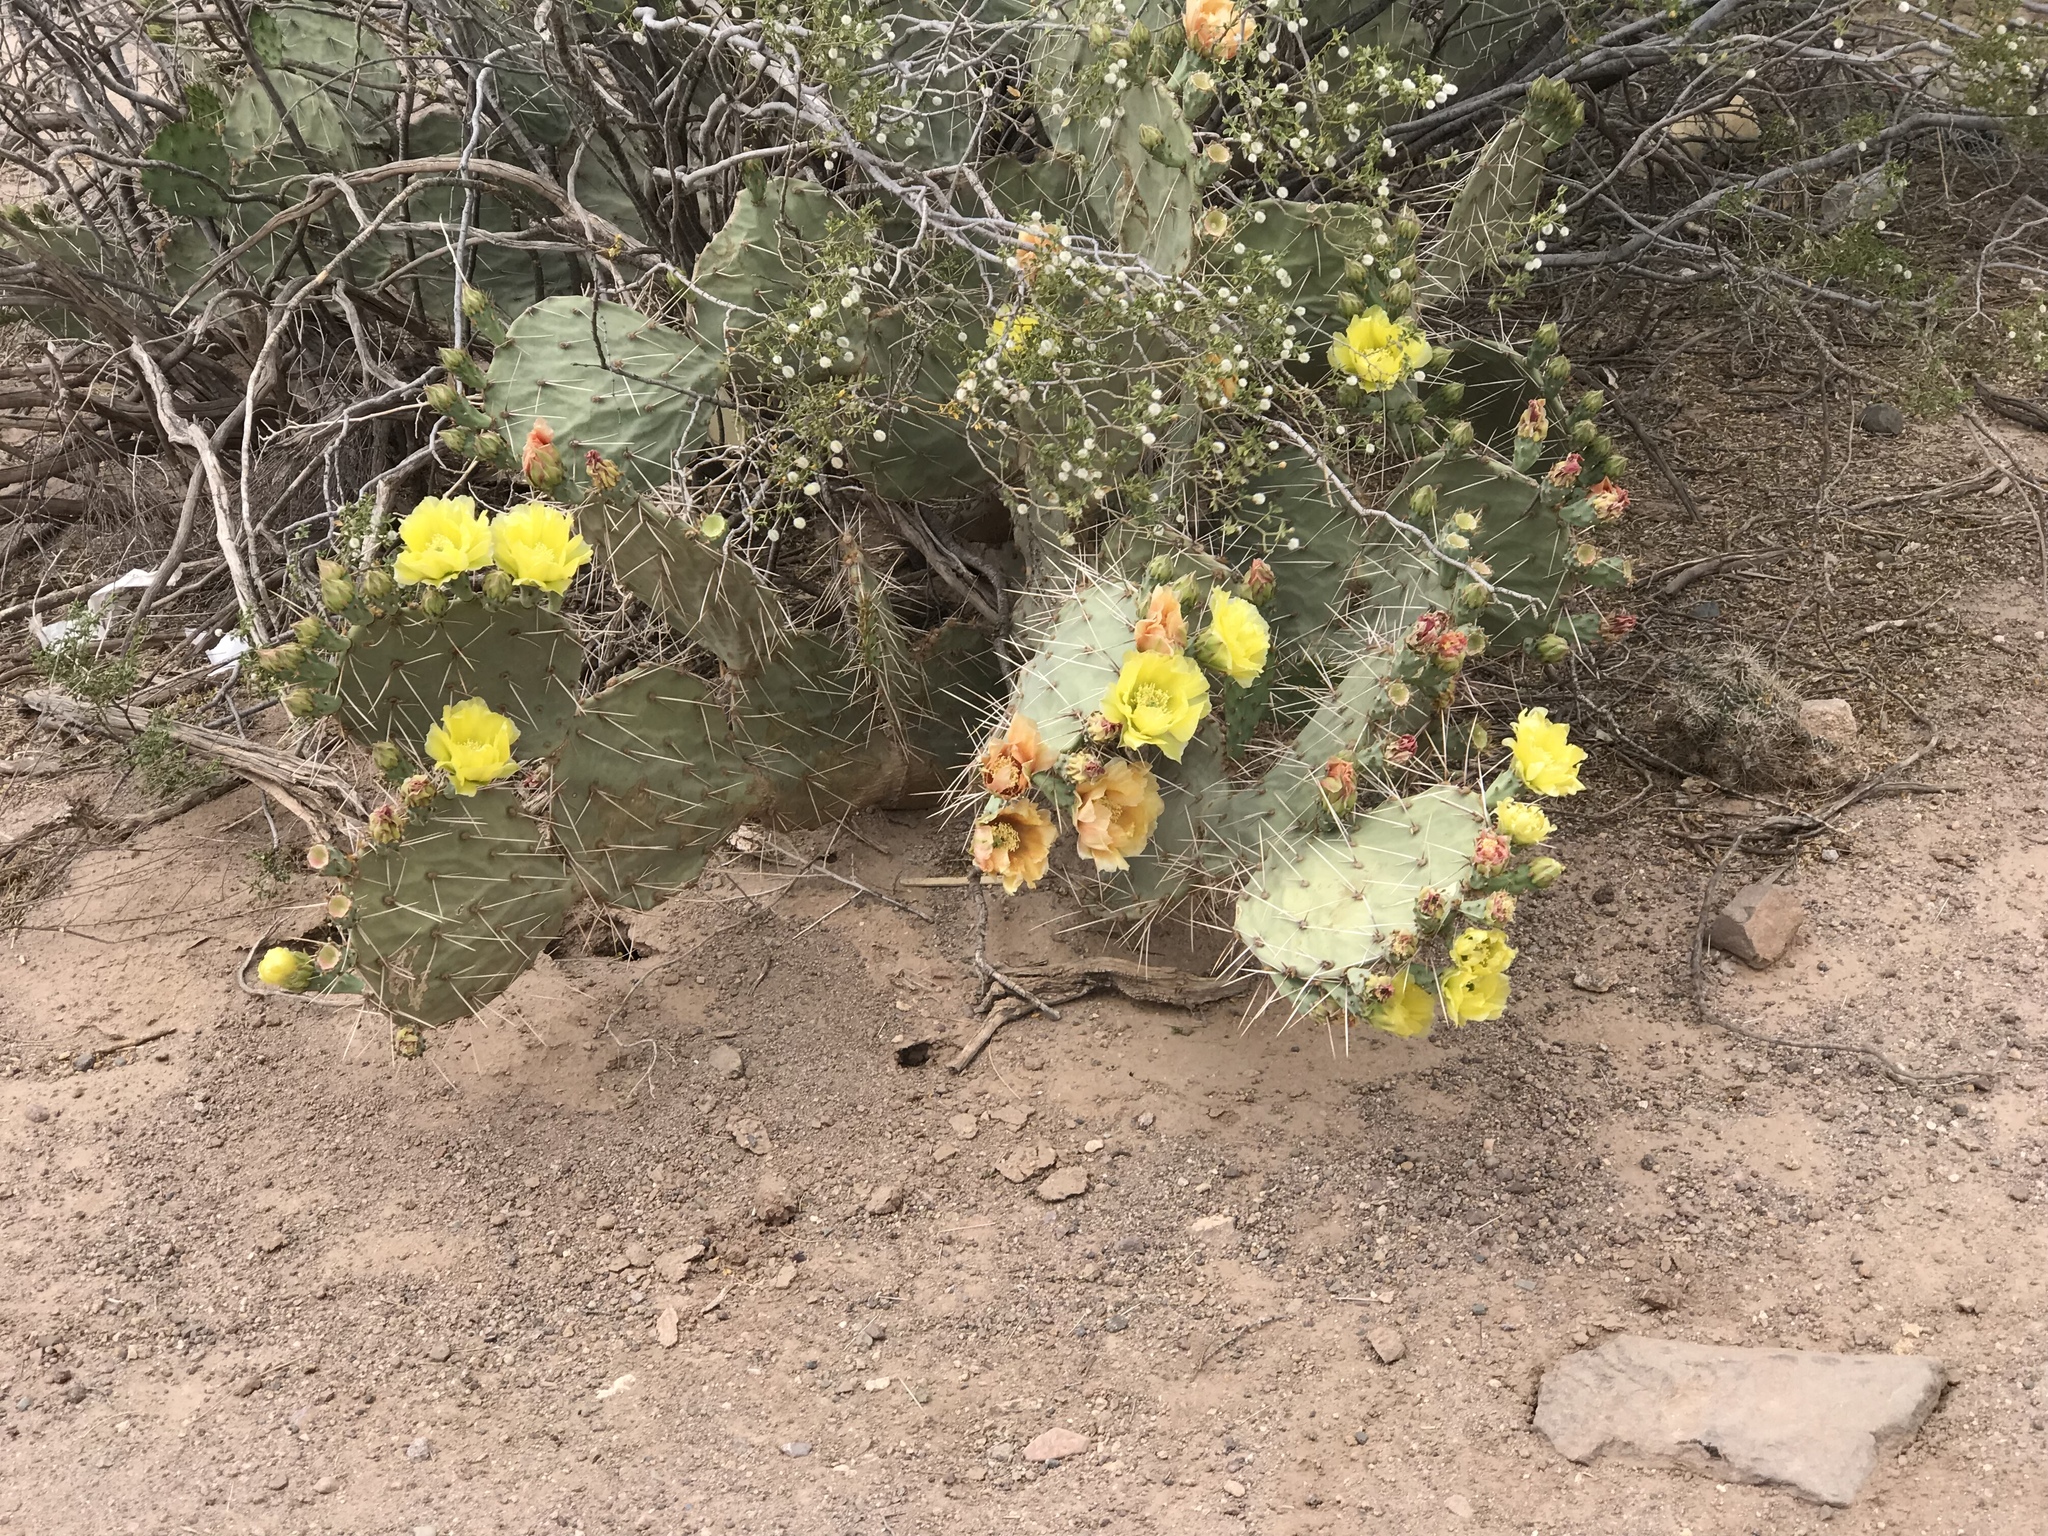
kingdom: Plantae
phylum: Tracheophyta
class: Magnoliopsida
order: Caryophyllales
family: Cactaceae
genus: Opuntia
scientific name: Opuntia engelmannii
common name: Cactus-apple
